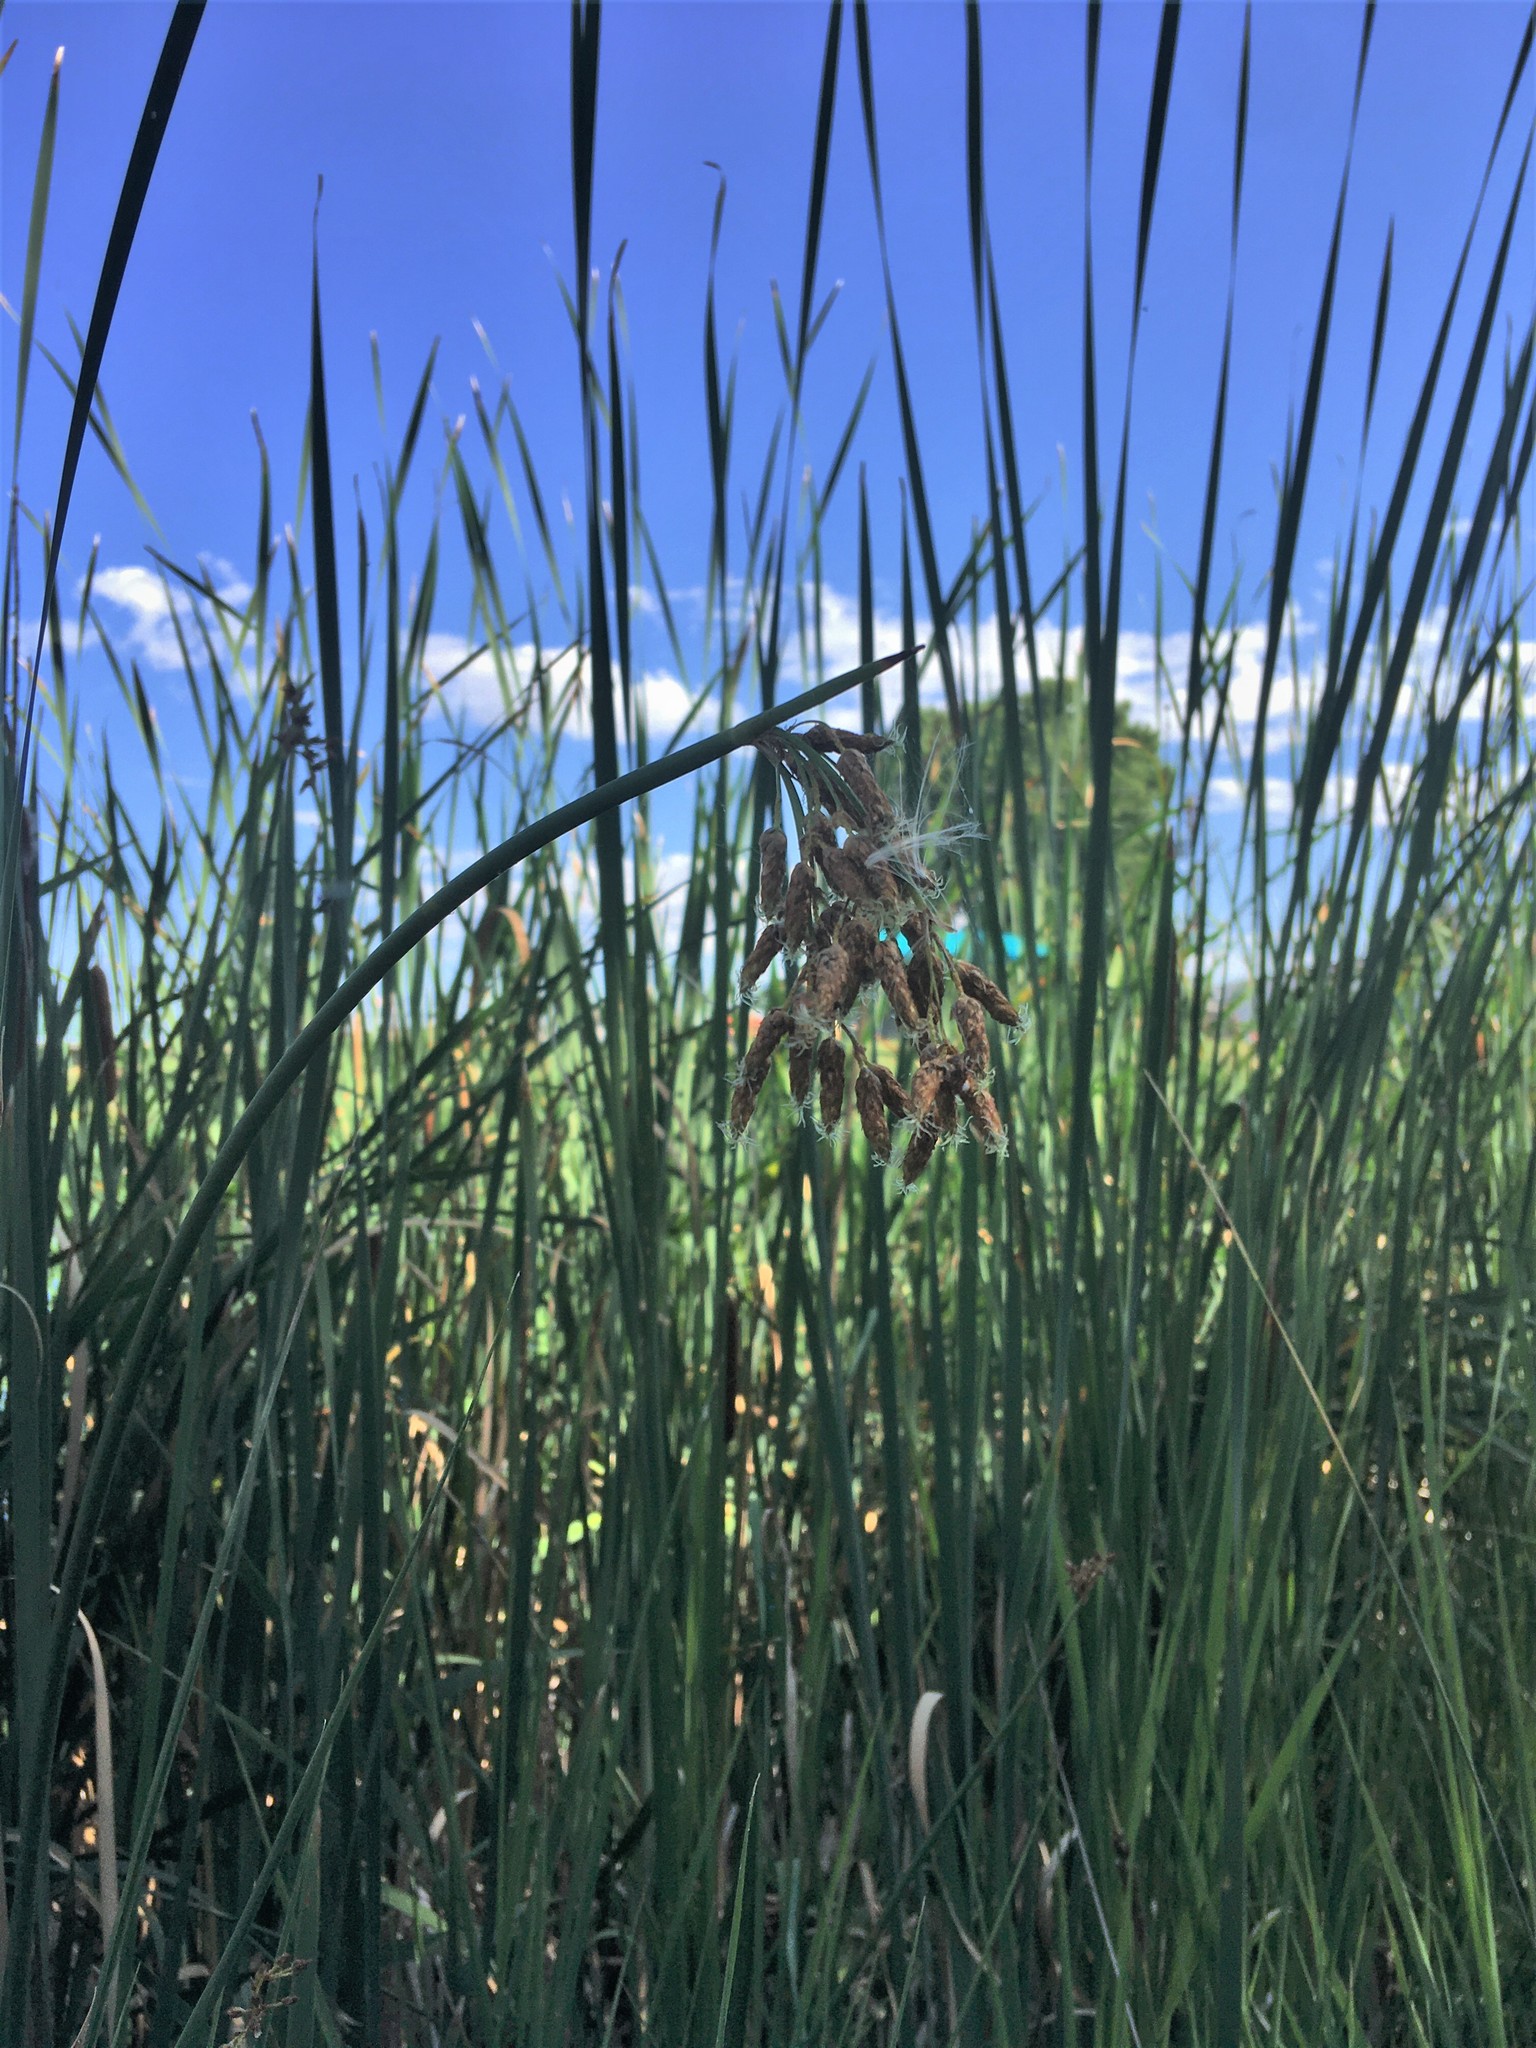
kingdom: Plantae
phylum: Tracheophyta
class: Liliopsida
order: Poales
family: Cyperaceae
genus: Schoenoplectus
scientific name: Schoenoplectus tabernaemontani
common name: Grey club-rush
